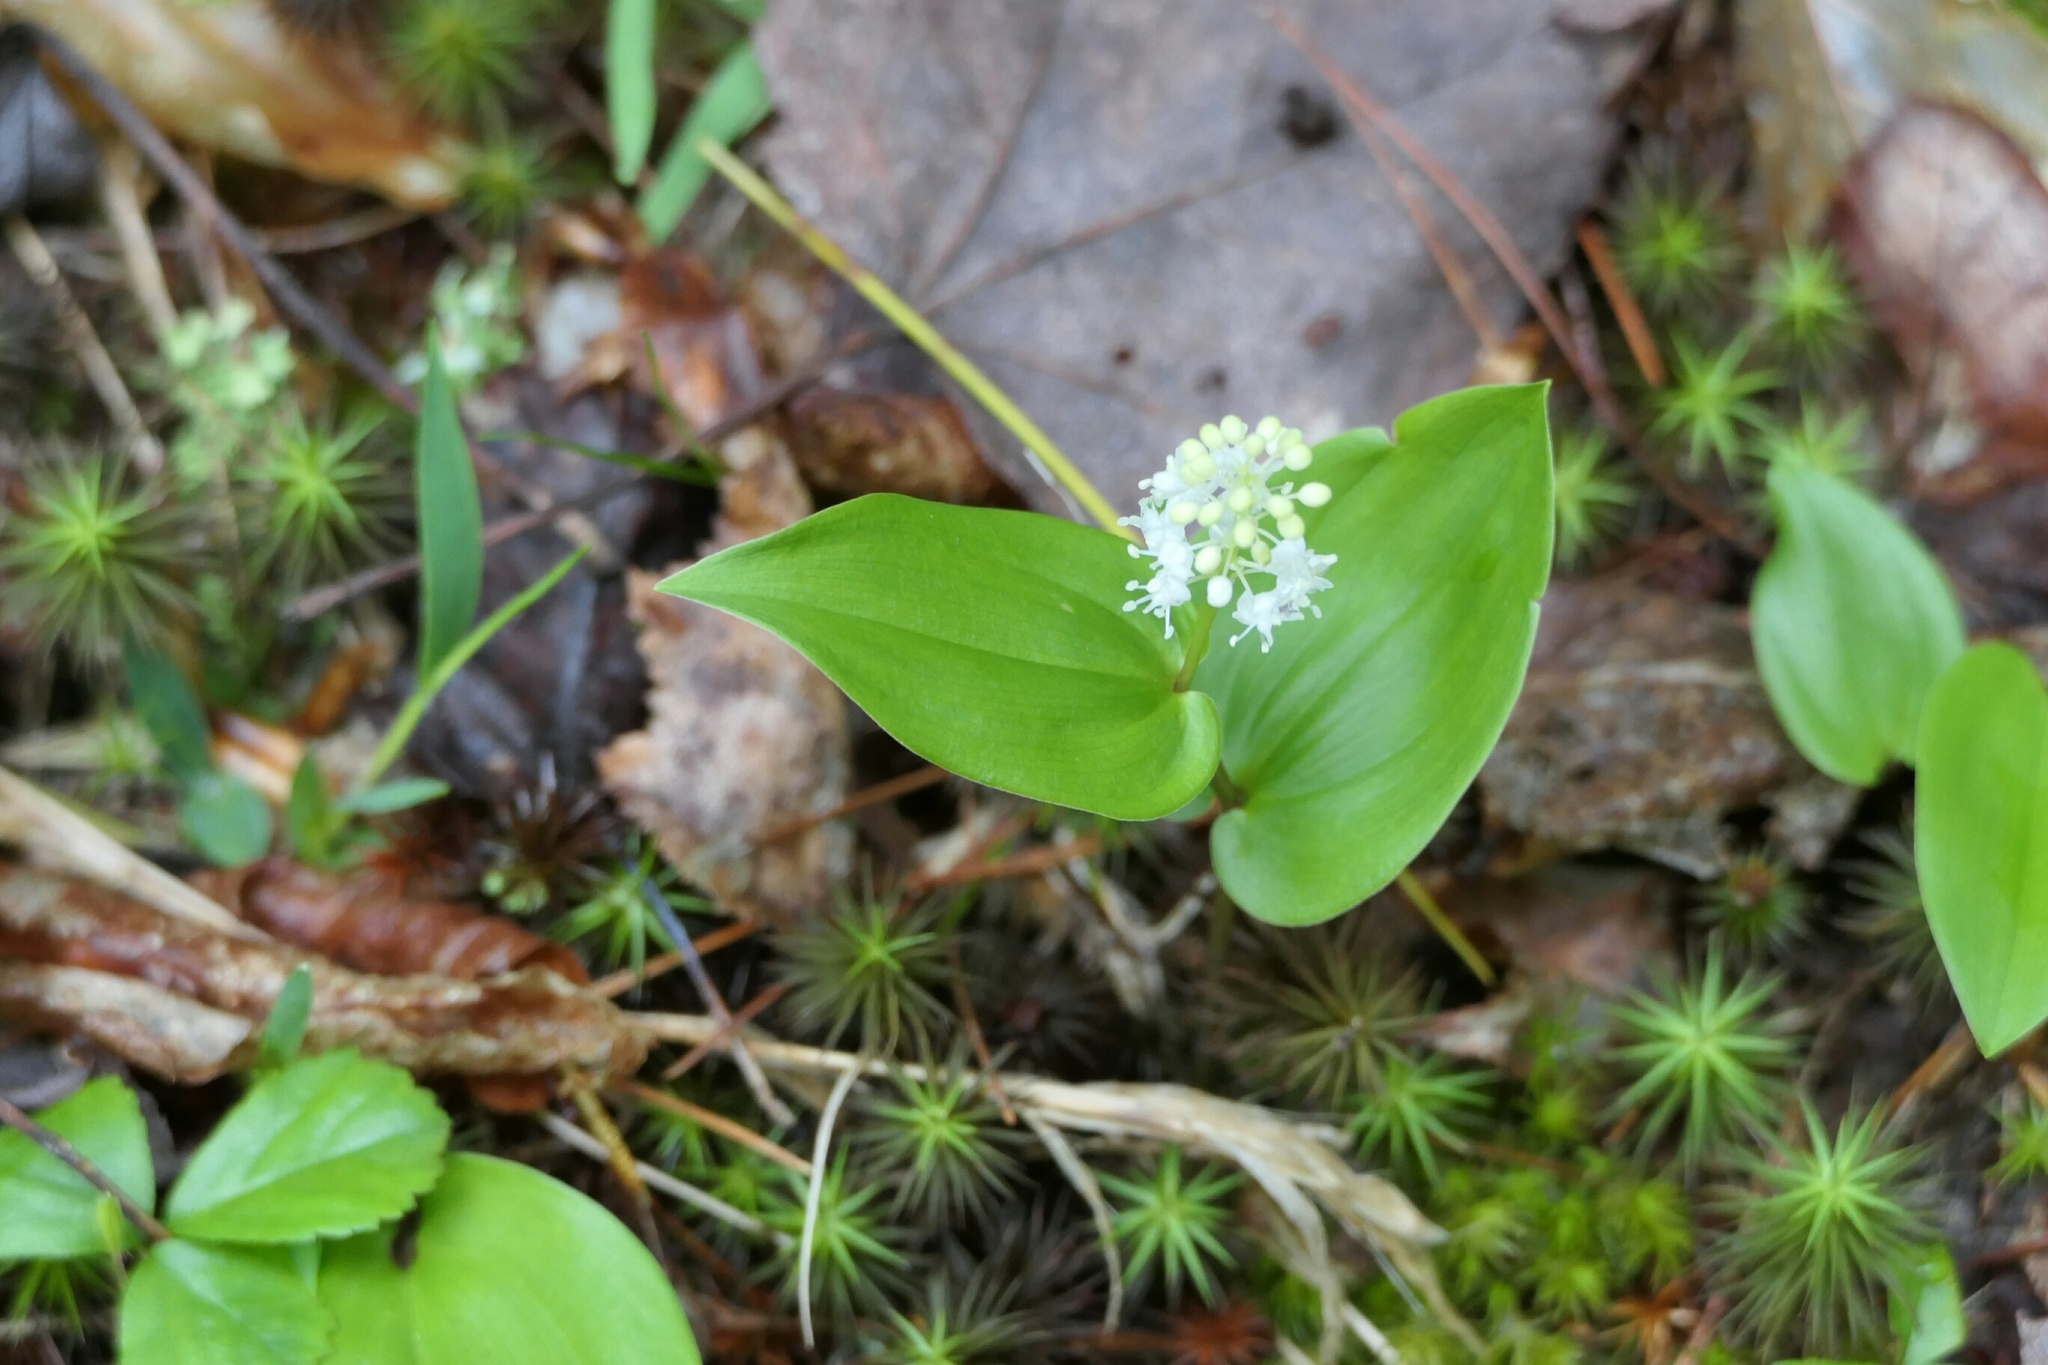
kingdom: Plantae
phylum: Tracheophyta
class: Liliopsida
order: Asparagales
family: Asparagaceae
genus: Maianthemum
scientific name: Maianthemum canadense
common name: False lily-of-the-valley
